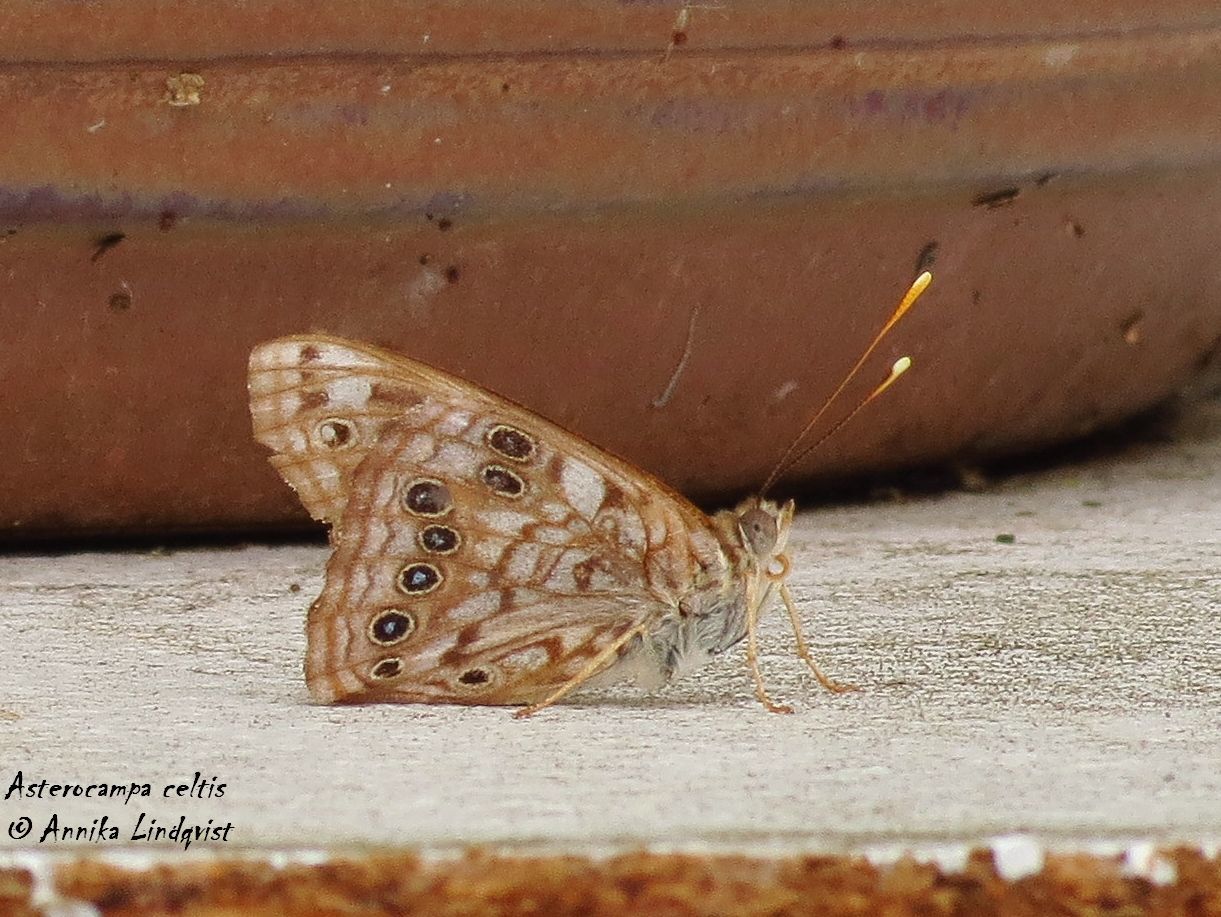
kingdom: Animalia
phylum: Arthropoda
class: Insecta
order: Lepidoptera
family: Nymphalidae
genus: Asterocampa
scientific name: Asterocampa celtis
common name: Hackberry emperor
